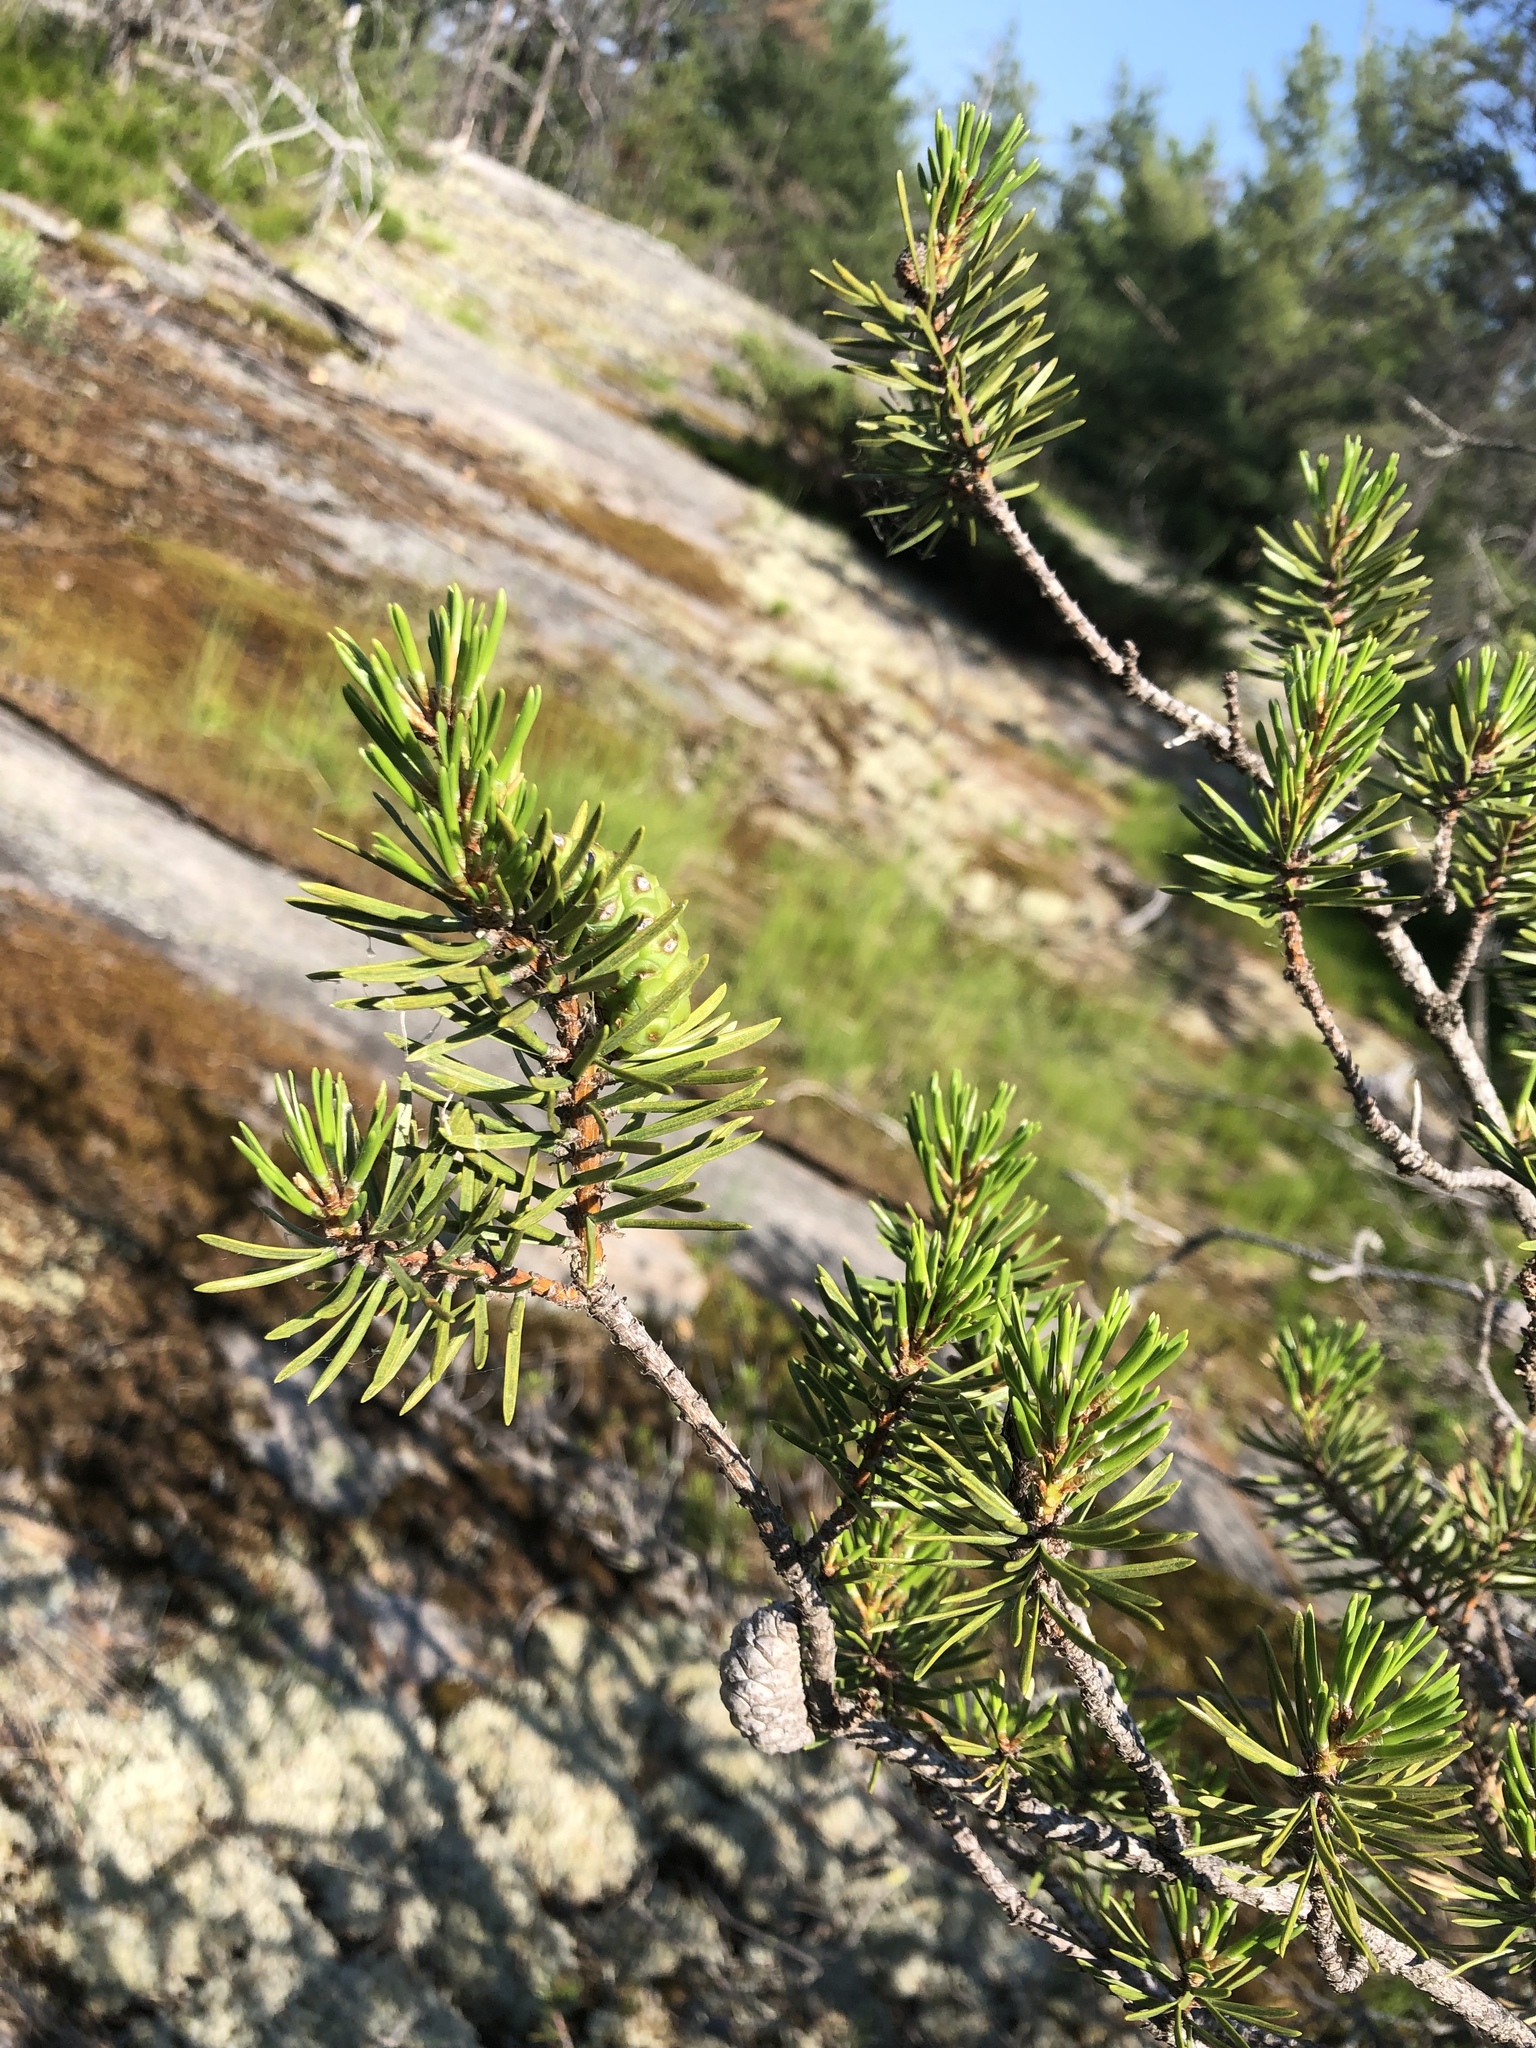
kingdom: Plantae
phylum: Tracheophyta
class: Pinopsida
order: Pinales
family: Pinaceae
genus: Pinus
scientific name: Pinus banksiana
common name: Jack pine
